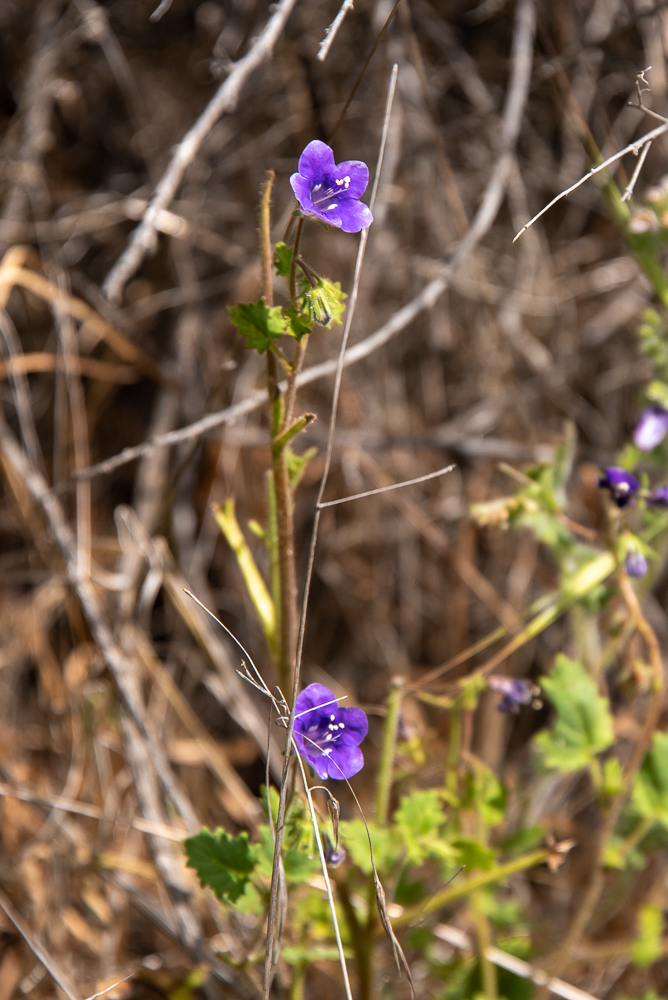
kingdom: Plantae
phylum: Tracheophyta
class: Magnoliopsida
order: Boraginales
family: Hydrophyllaceae
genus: Phacelia
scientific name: Phacelia parryi
